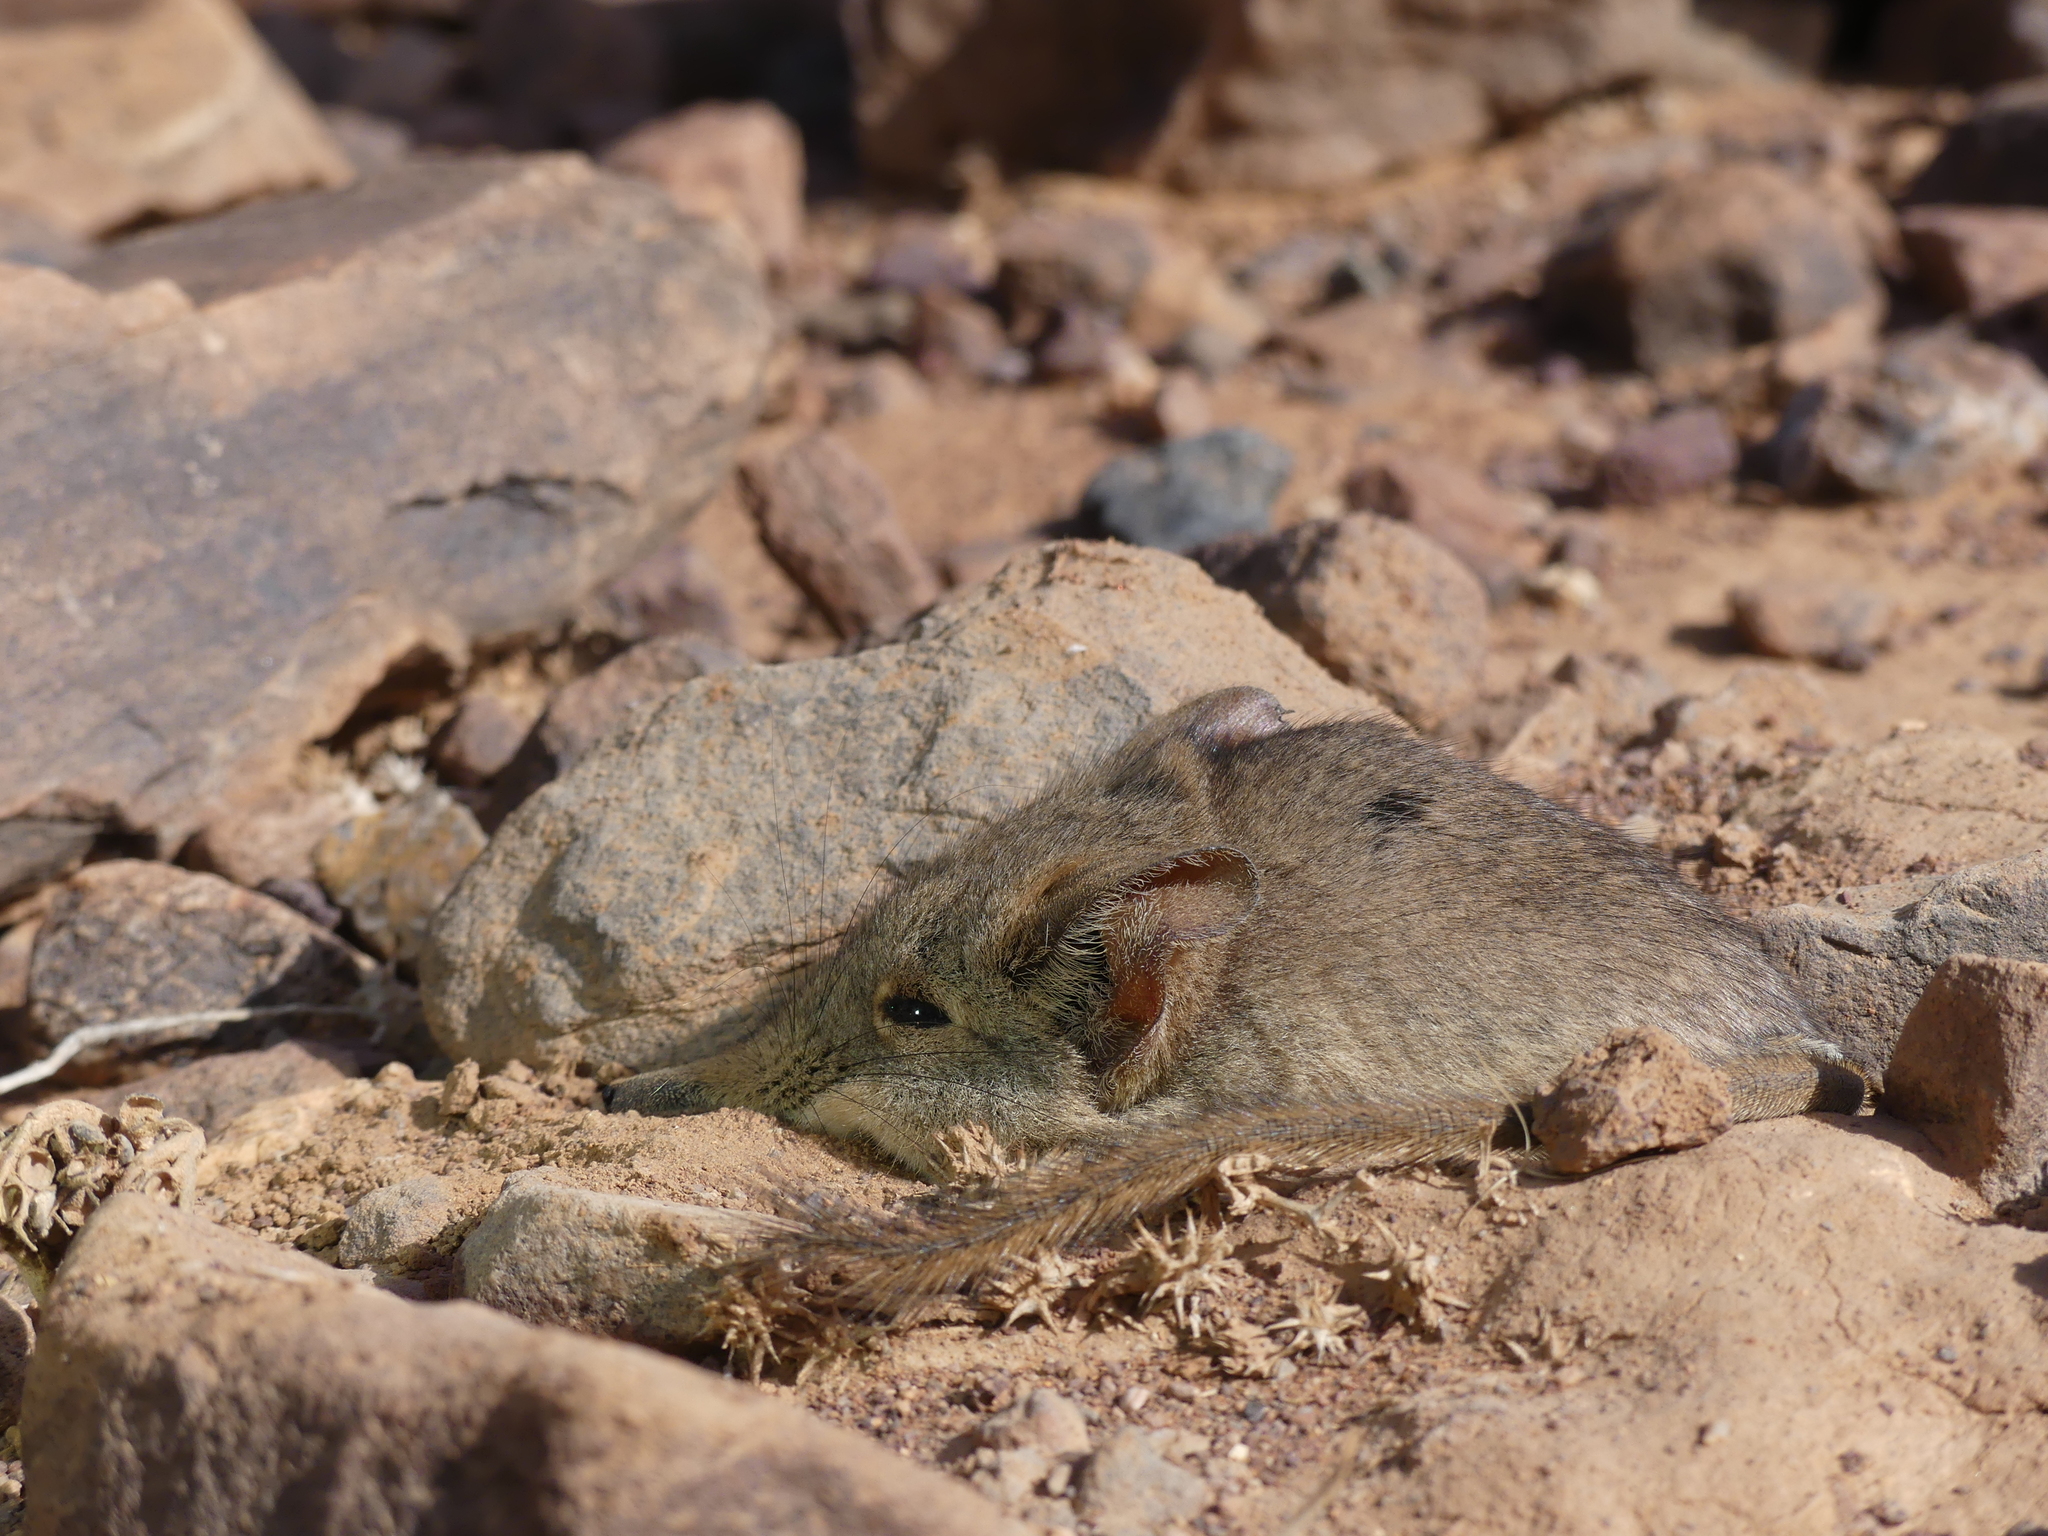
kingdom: Animalia
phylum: Chordata
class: Mammalia
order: Macroscelidea
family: Macroscelididae
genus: Elephantulus
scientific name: Elephantulus rozeti
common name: North african elephant shrew
